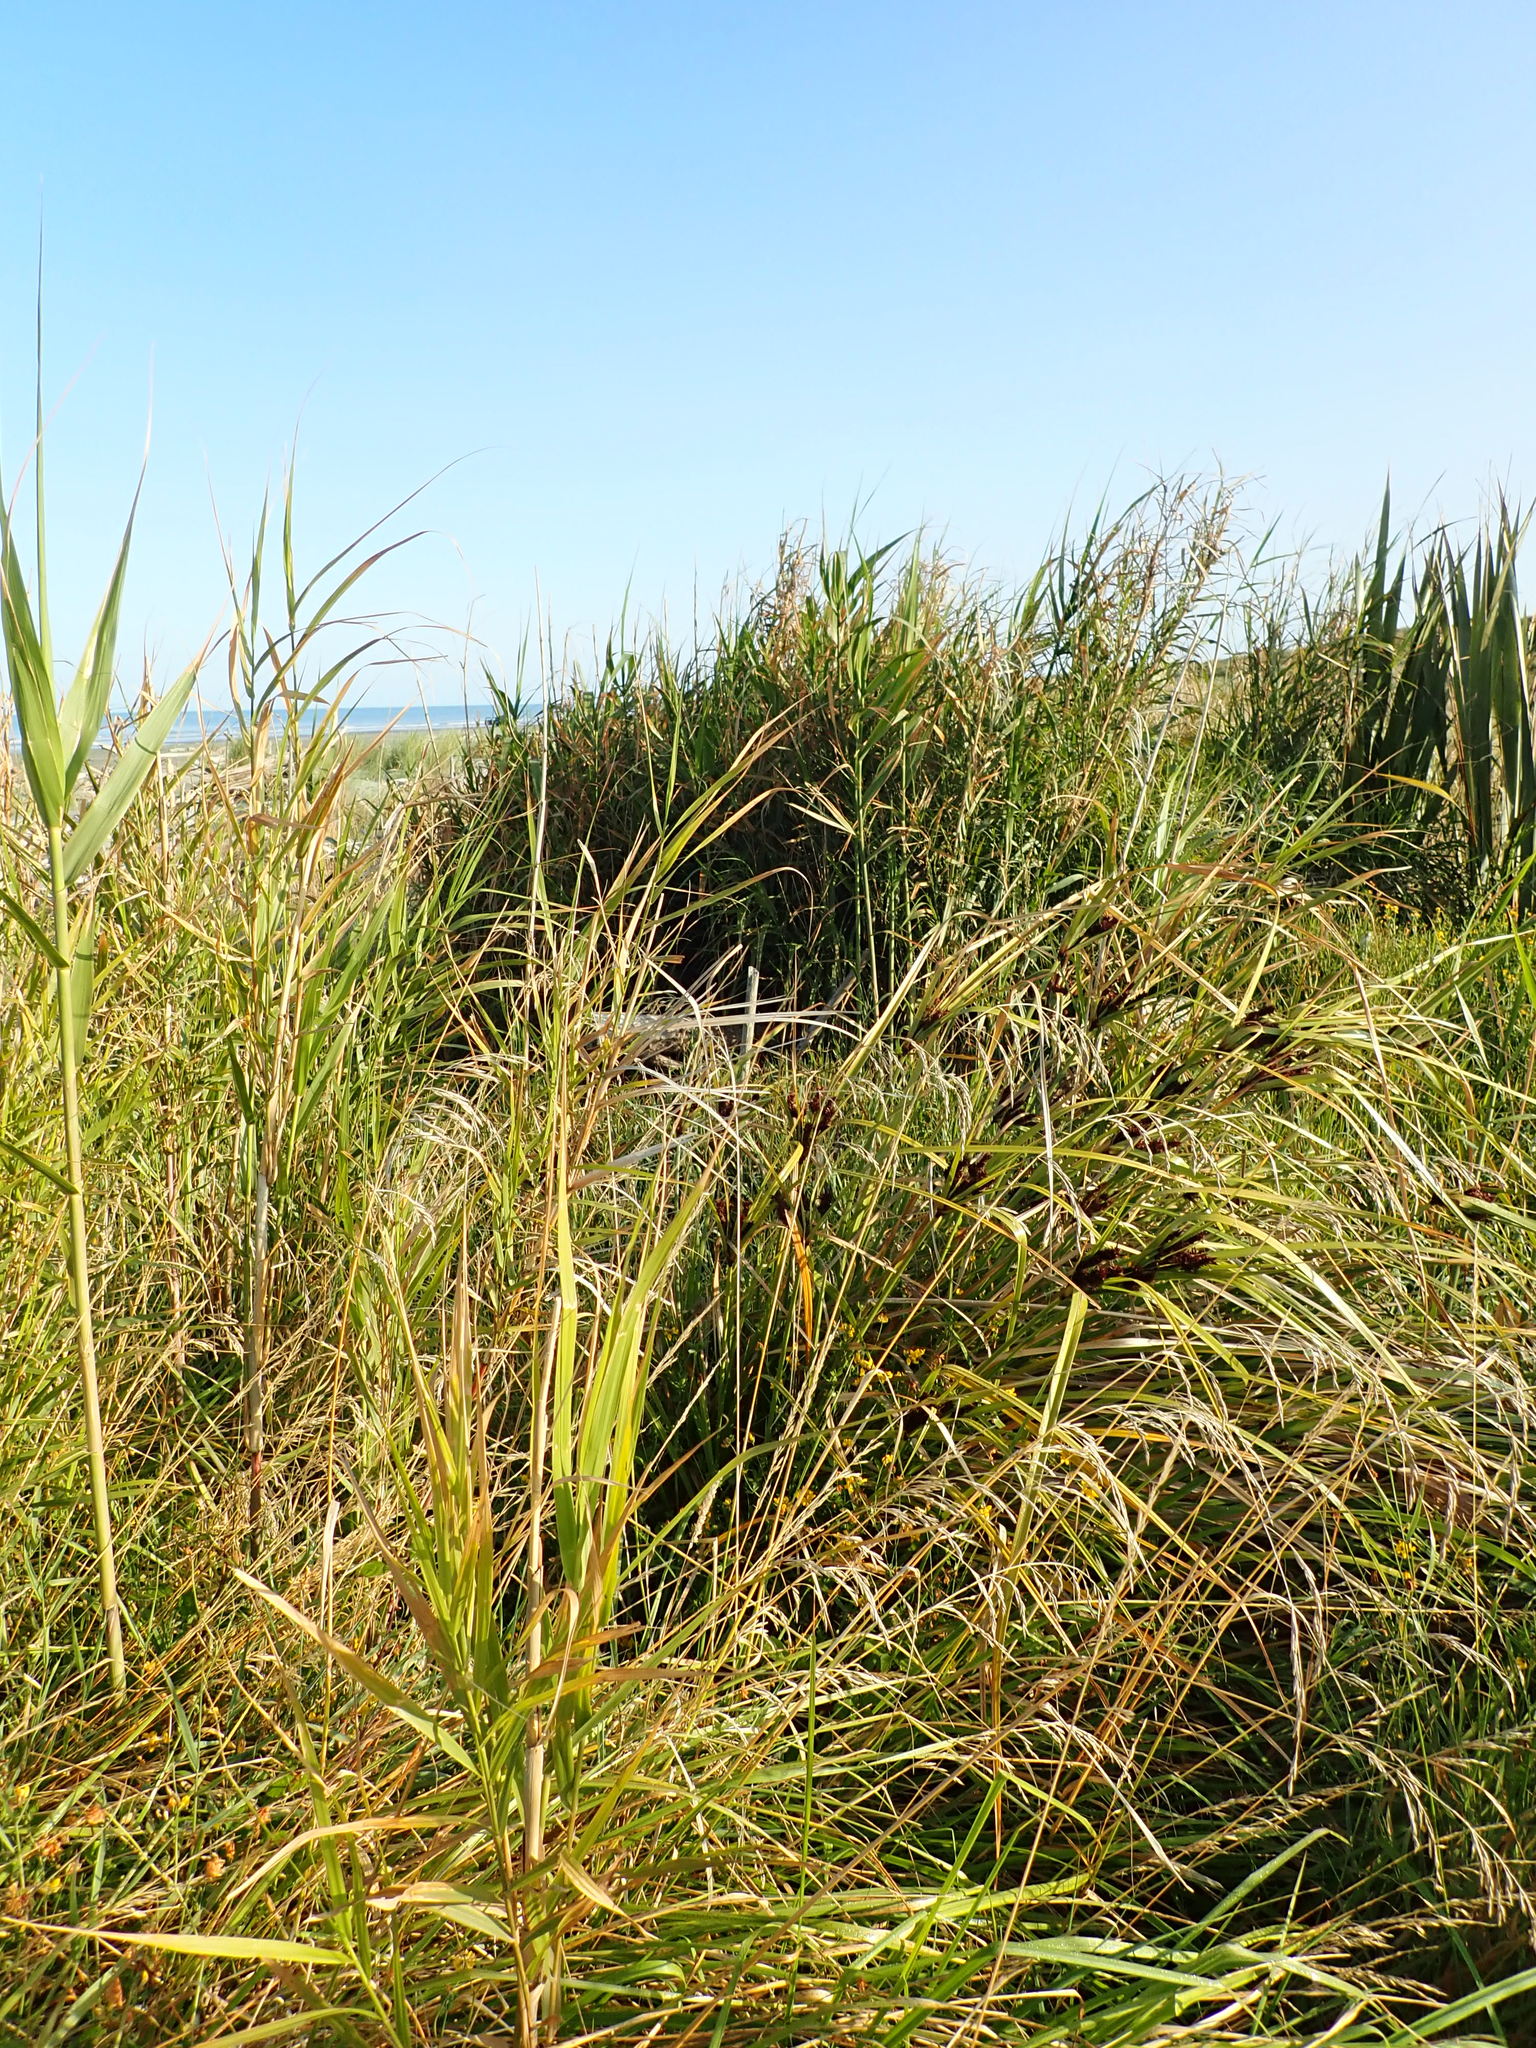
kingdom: Plantae
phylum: Tracheophyta
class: Liliopsida
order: Poales
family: Poaceae
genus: Arundo
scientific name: Arundo donax
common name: Giant reed
